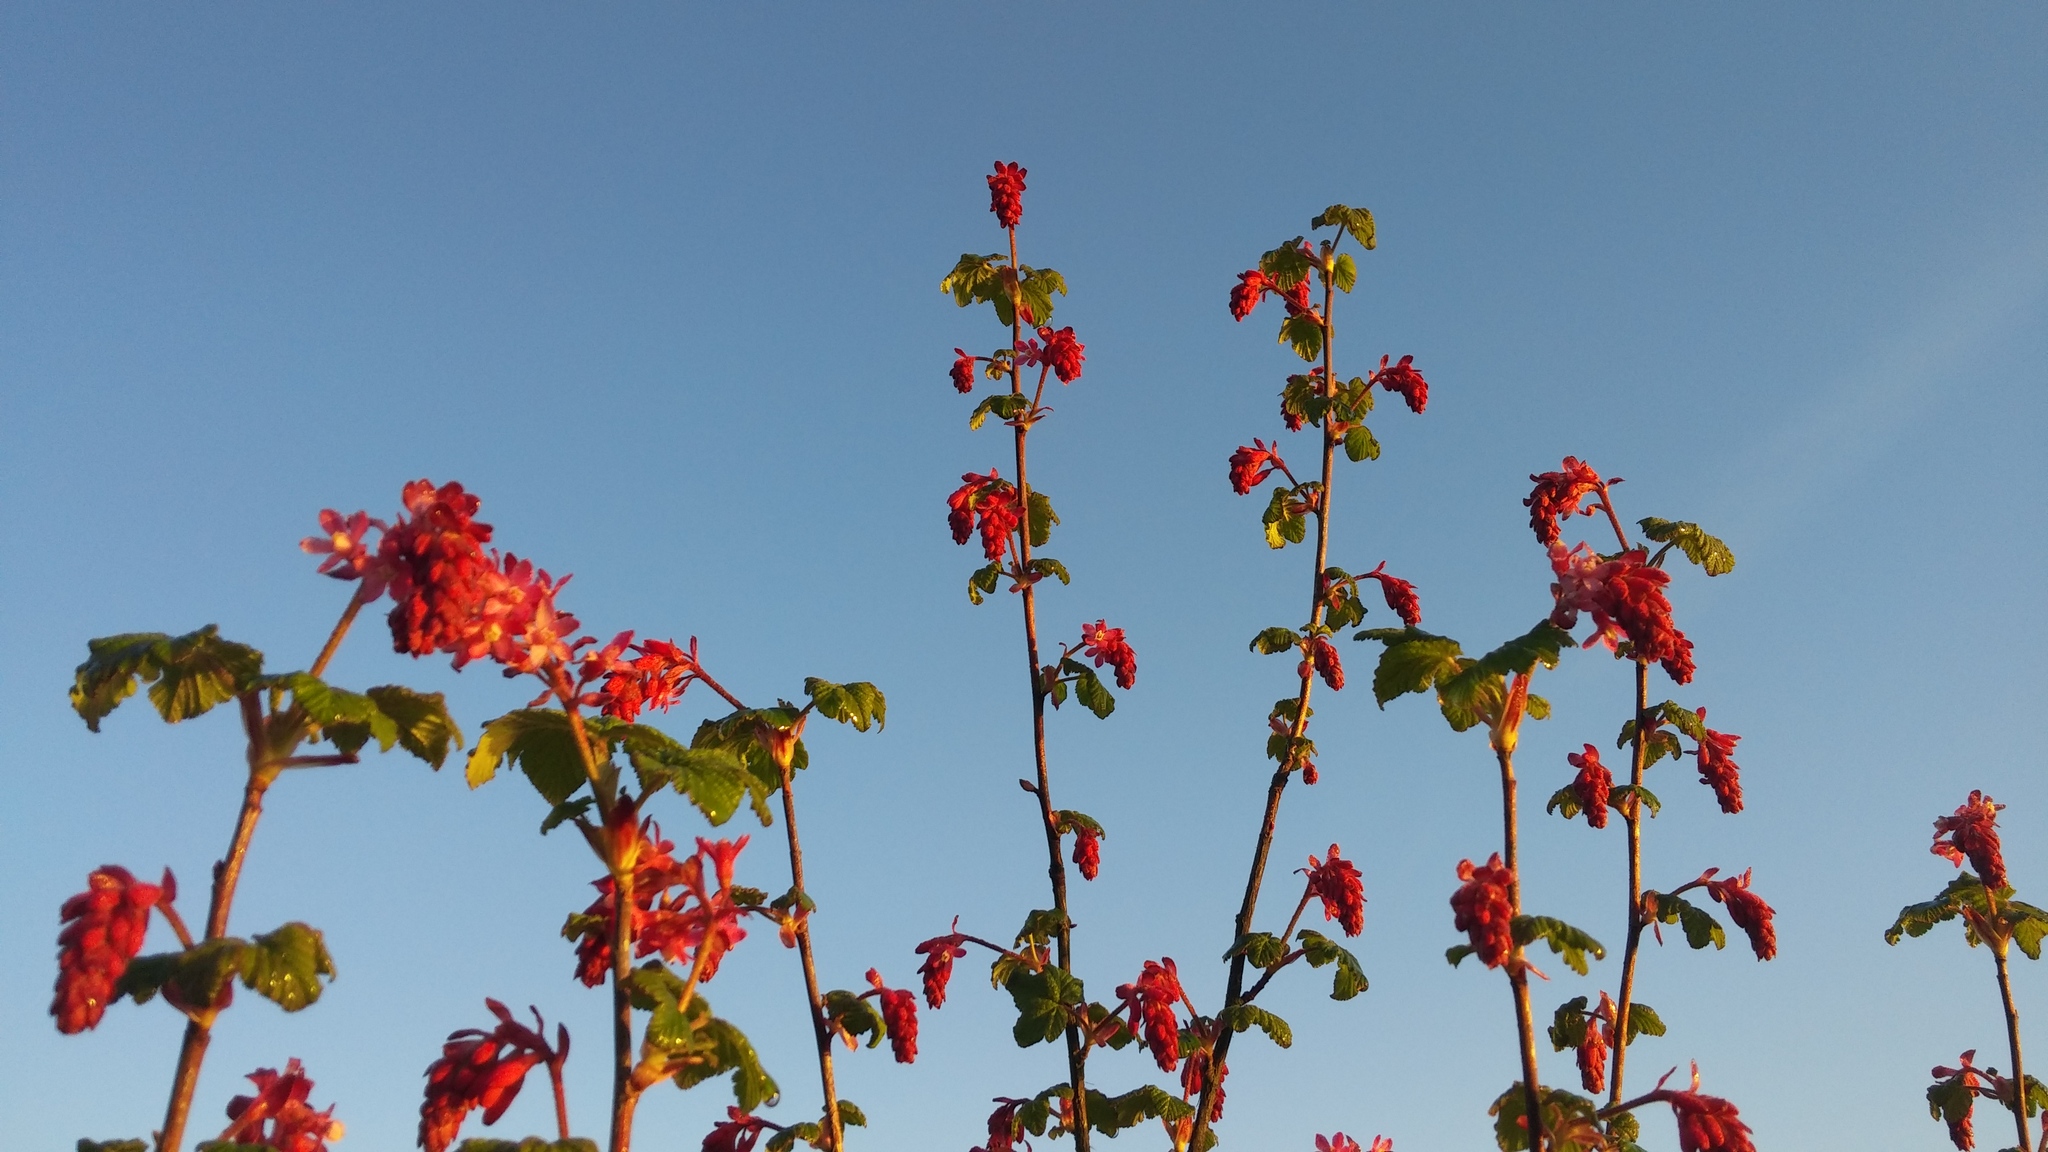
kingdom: Plantae
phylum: Tracheophyta
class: Magnoliopsida
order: Saxifragales
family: Grossulariaceae
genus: Ribes
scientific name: Ribes sanguineum
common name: Flowering currant
